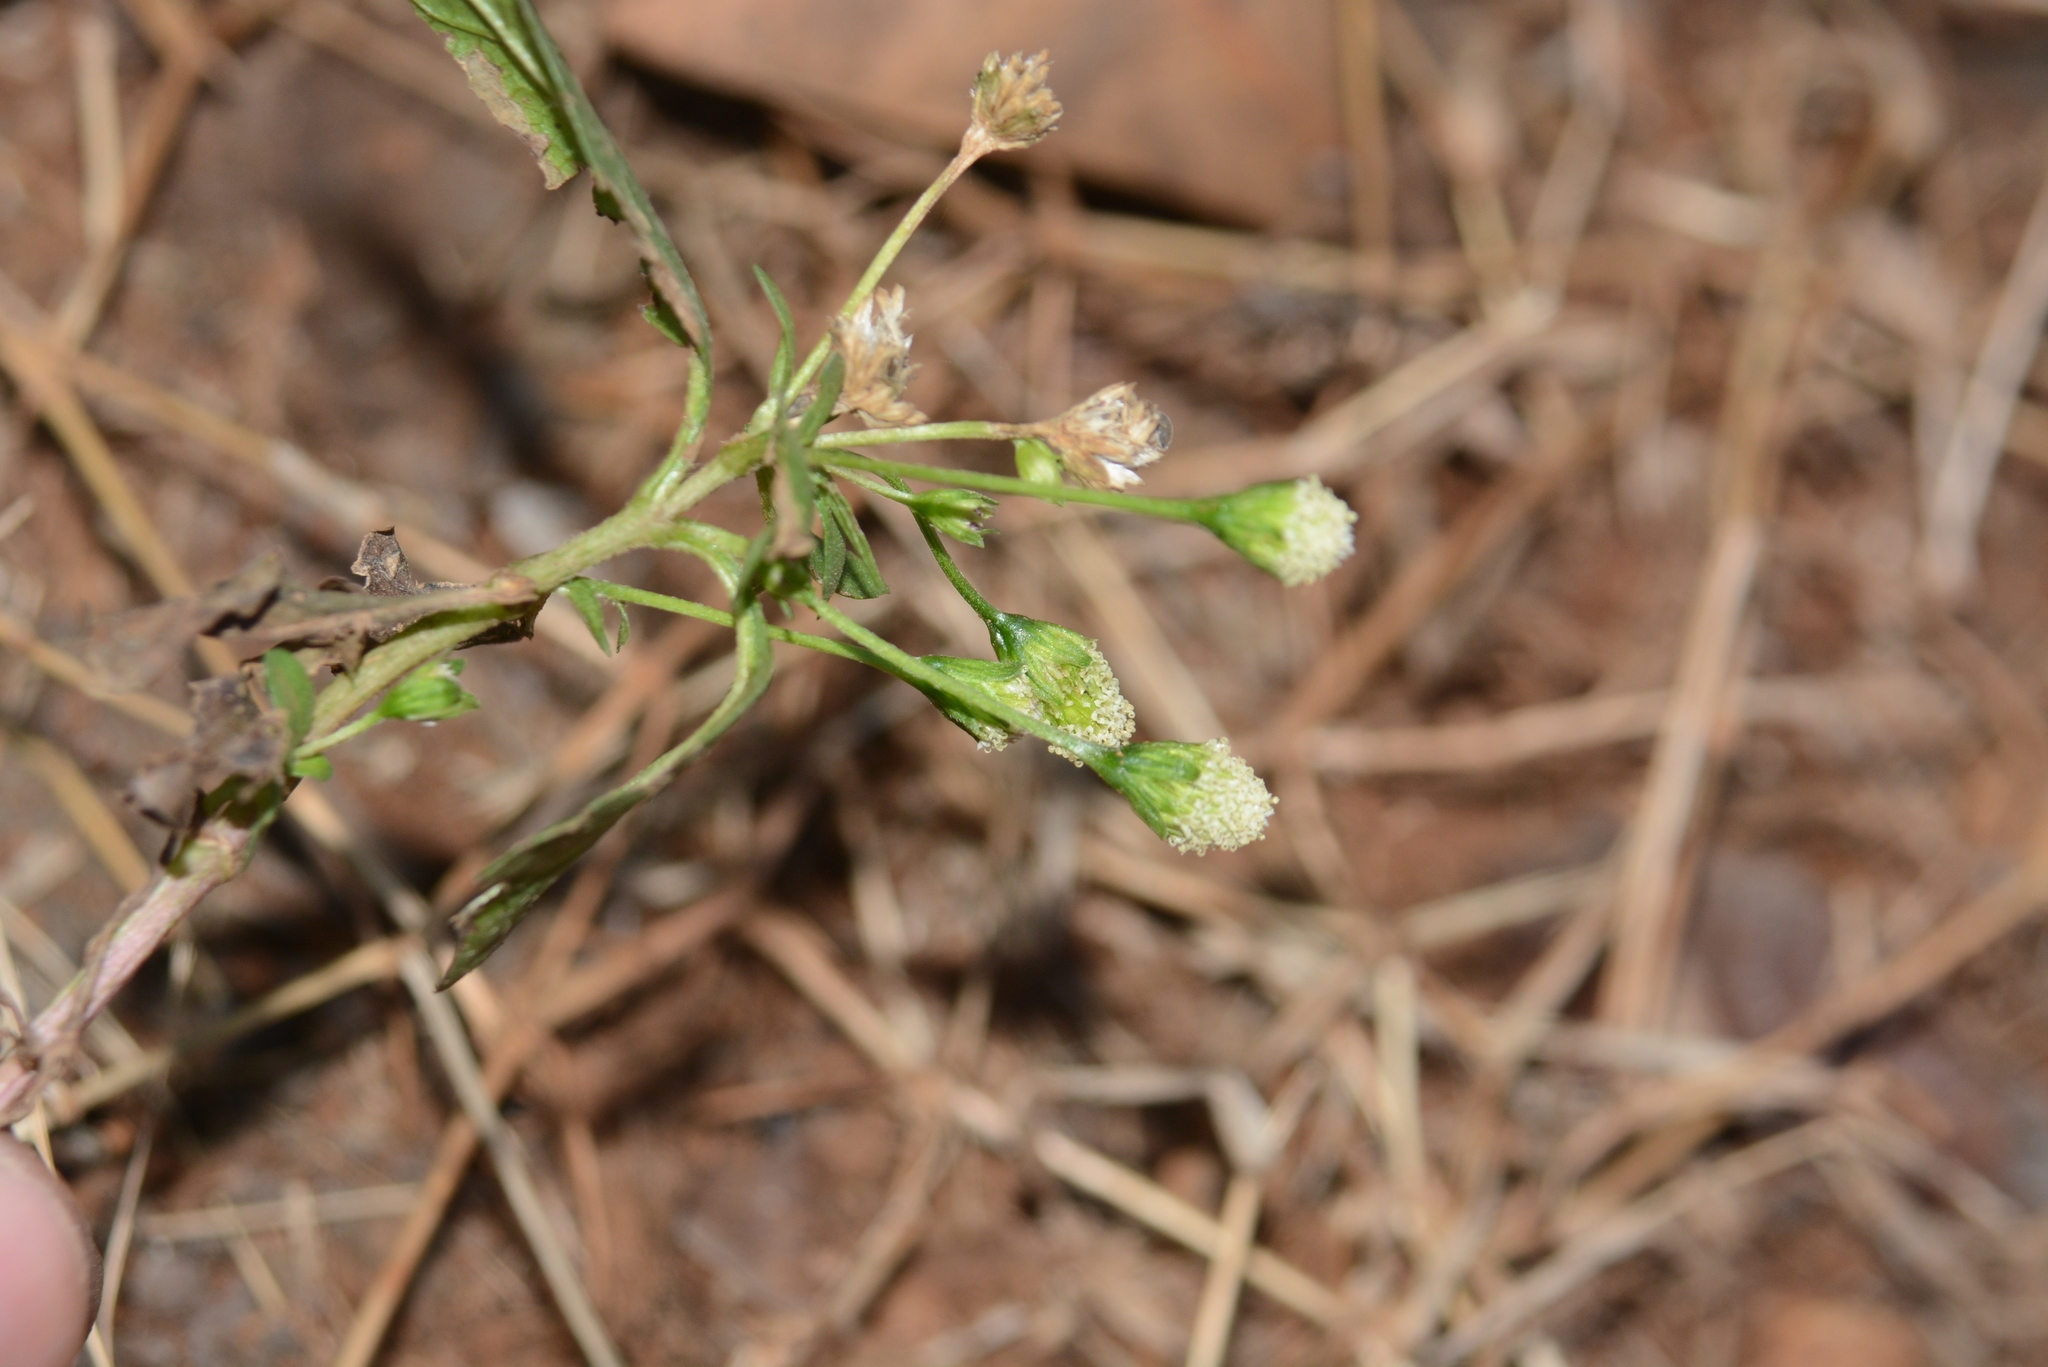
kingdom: Plantae
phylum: Tracheophyta
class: Magnoliopsida
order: Asterales
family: Asteraceae
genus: Acmella
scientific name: Acmella radicans
